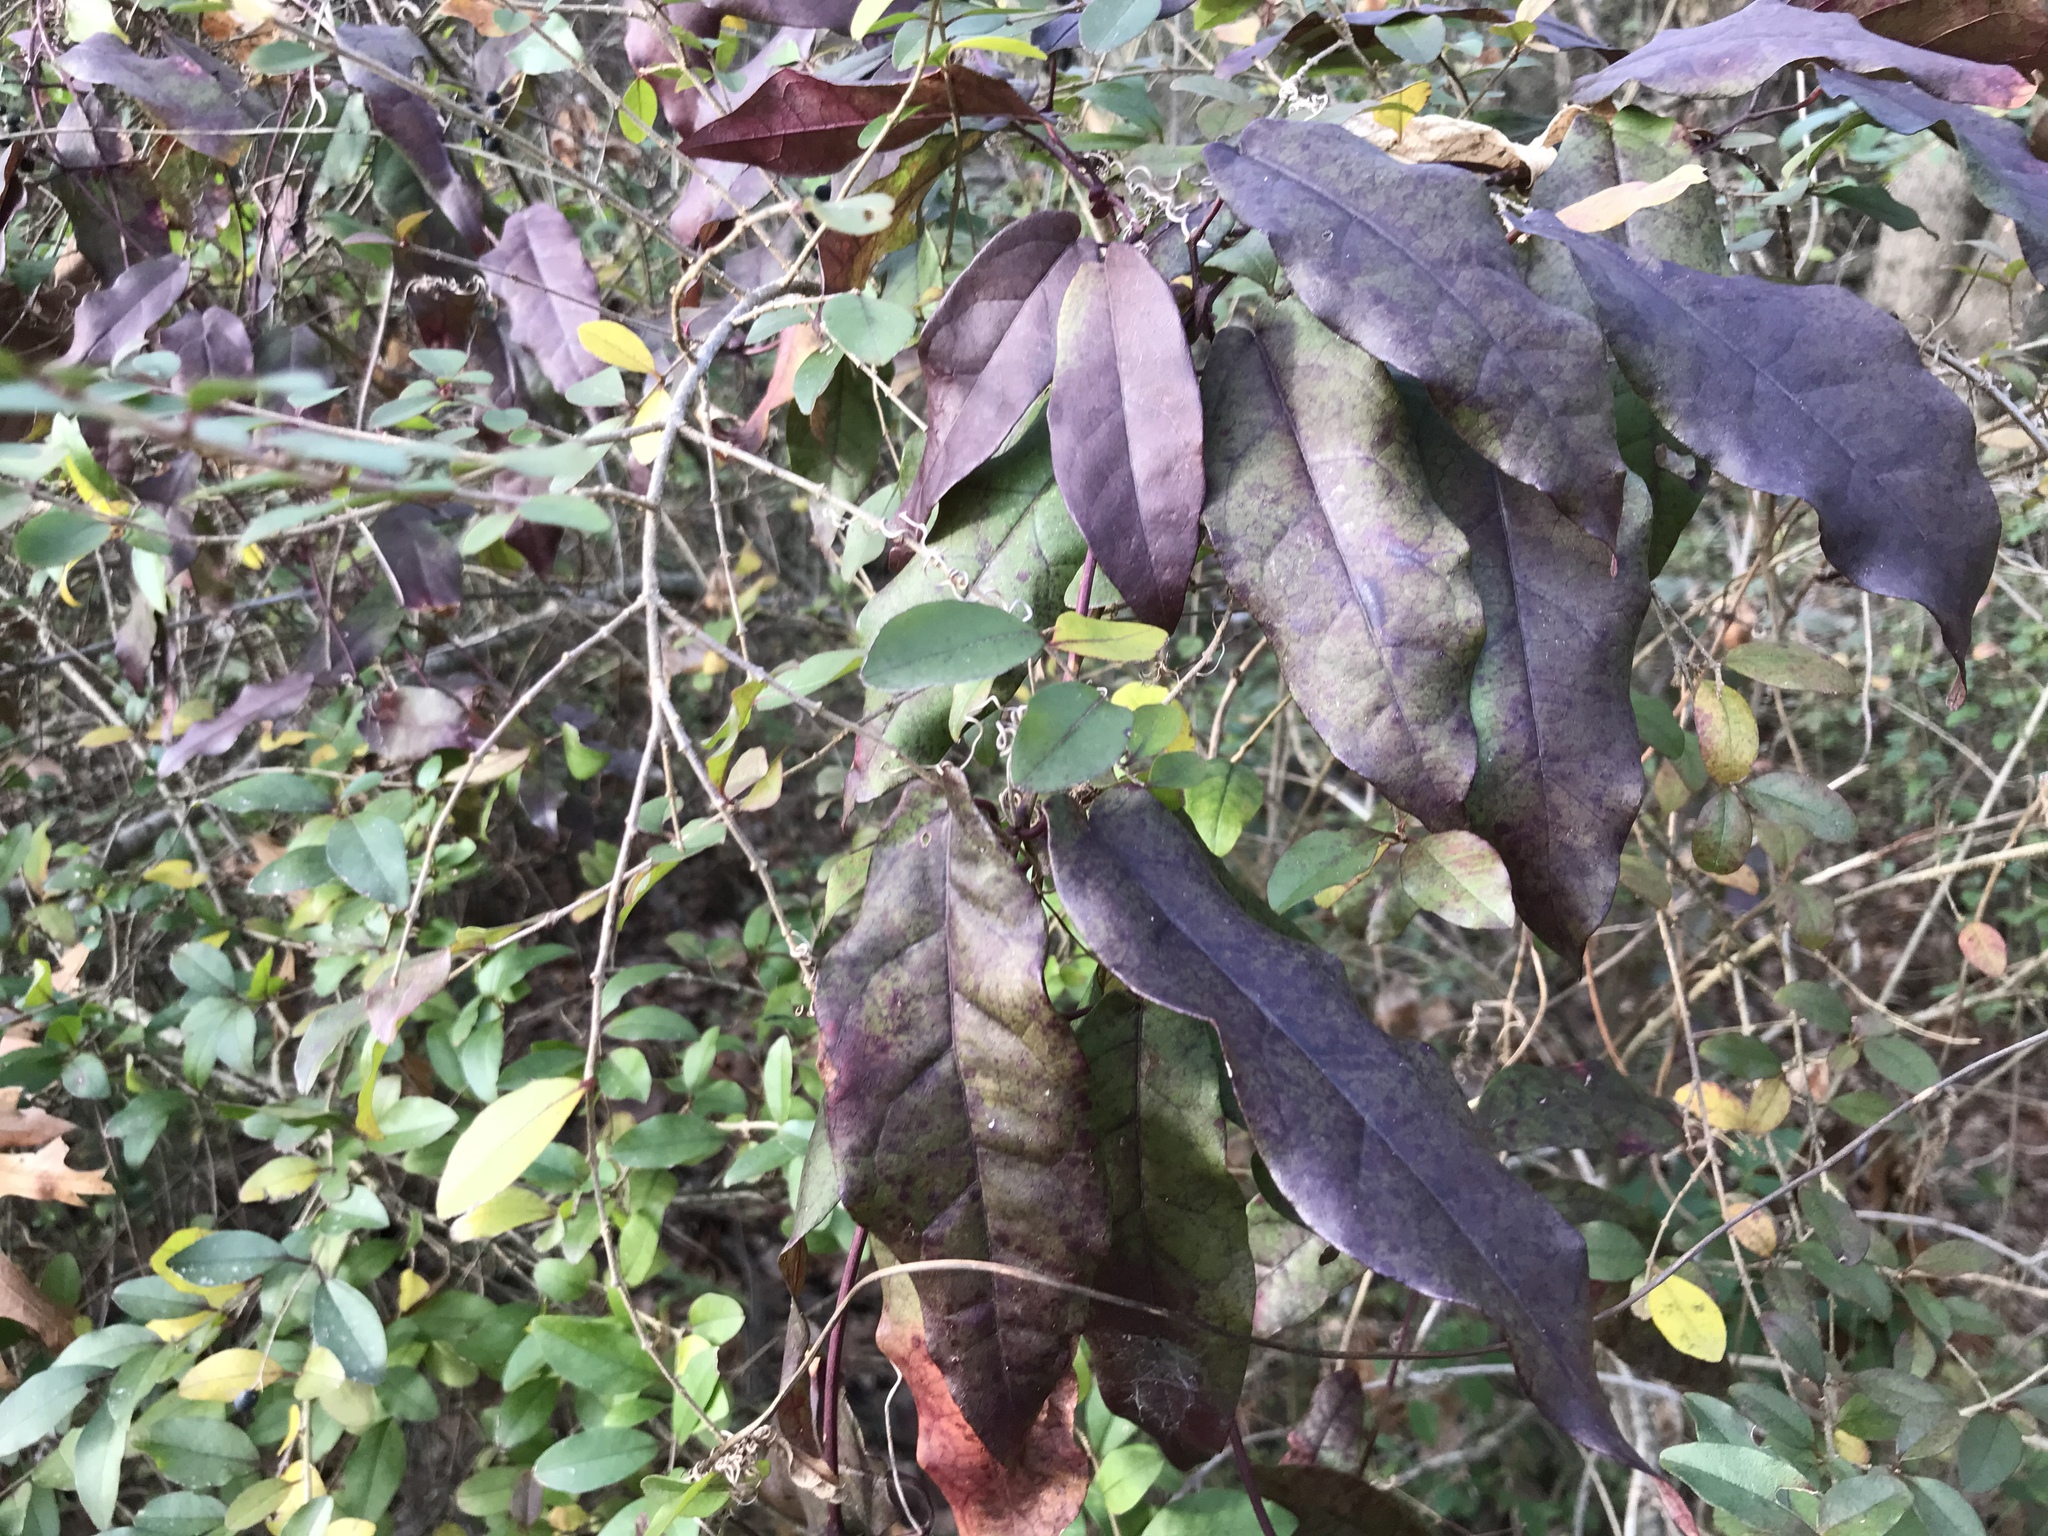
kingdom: Plantae
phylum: Tracheophyta
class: Magnoliopsida
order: Lamiales
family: Bignoniaceae
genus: Bignonia
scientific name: Bignonia capreolata
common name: Crossvine
